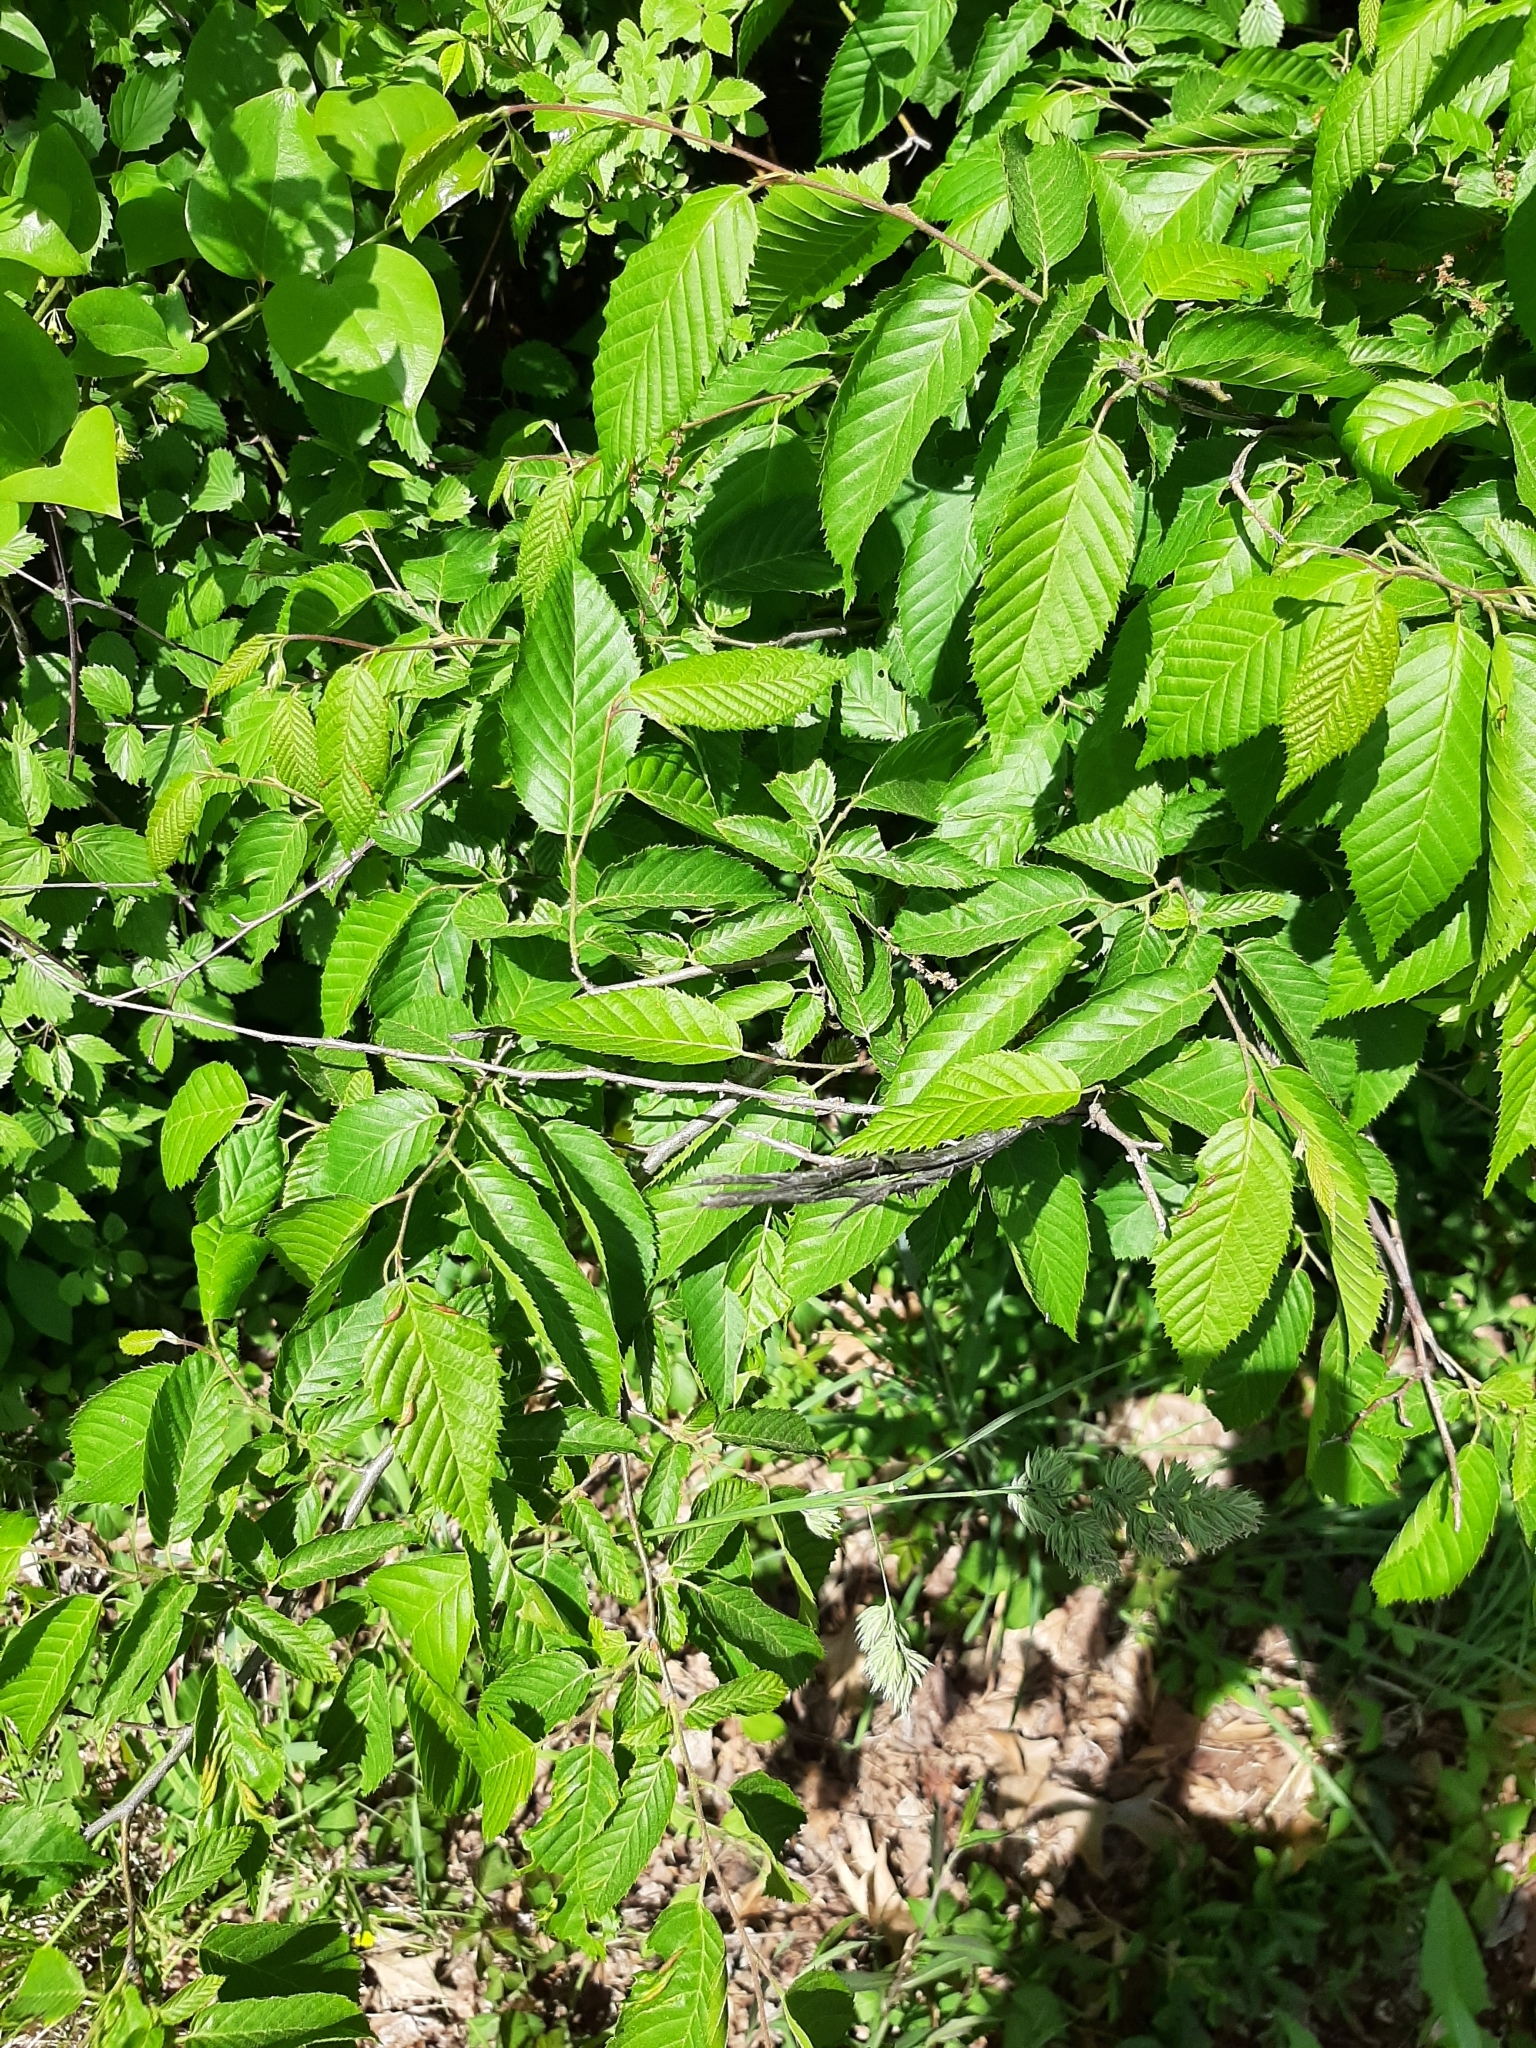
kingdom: Animalia
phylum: Arthropoda
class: Insecta
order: Diptera
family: Cecidomyiidae
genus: Dasineura
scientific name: Dasineura pudibunda
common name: Hornbeam leaf gall midge
